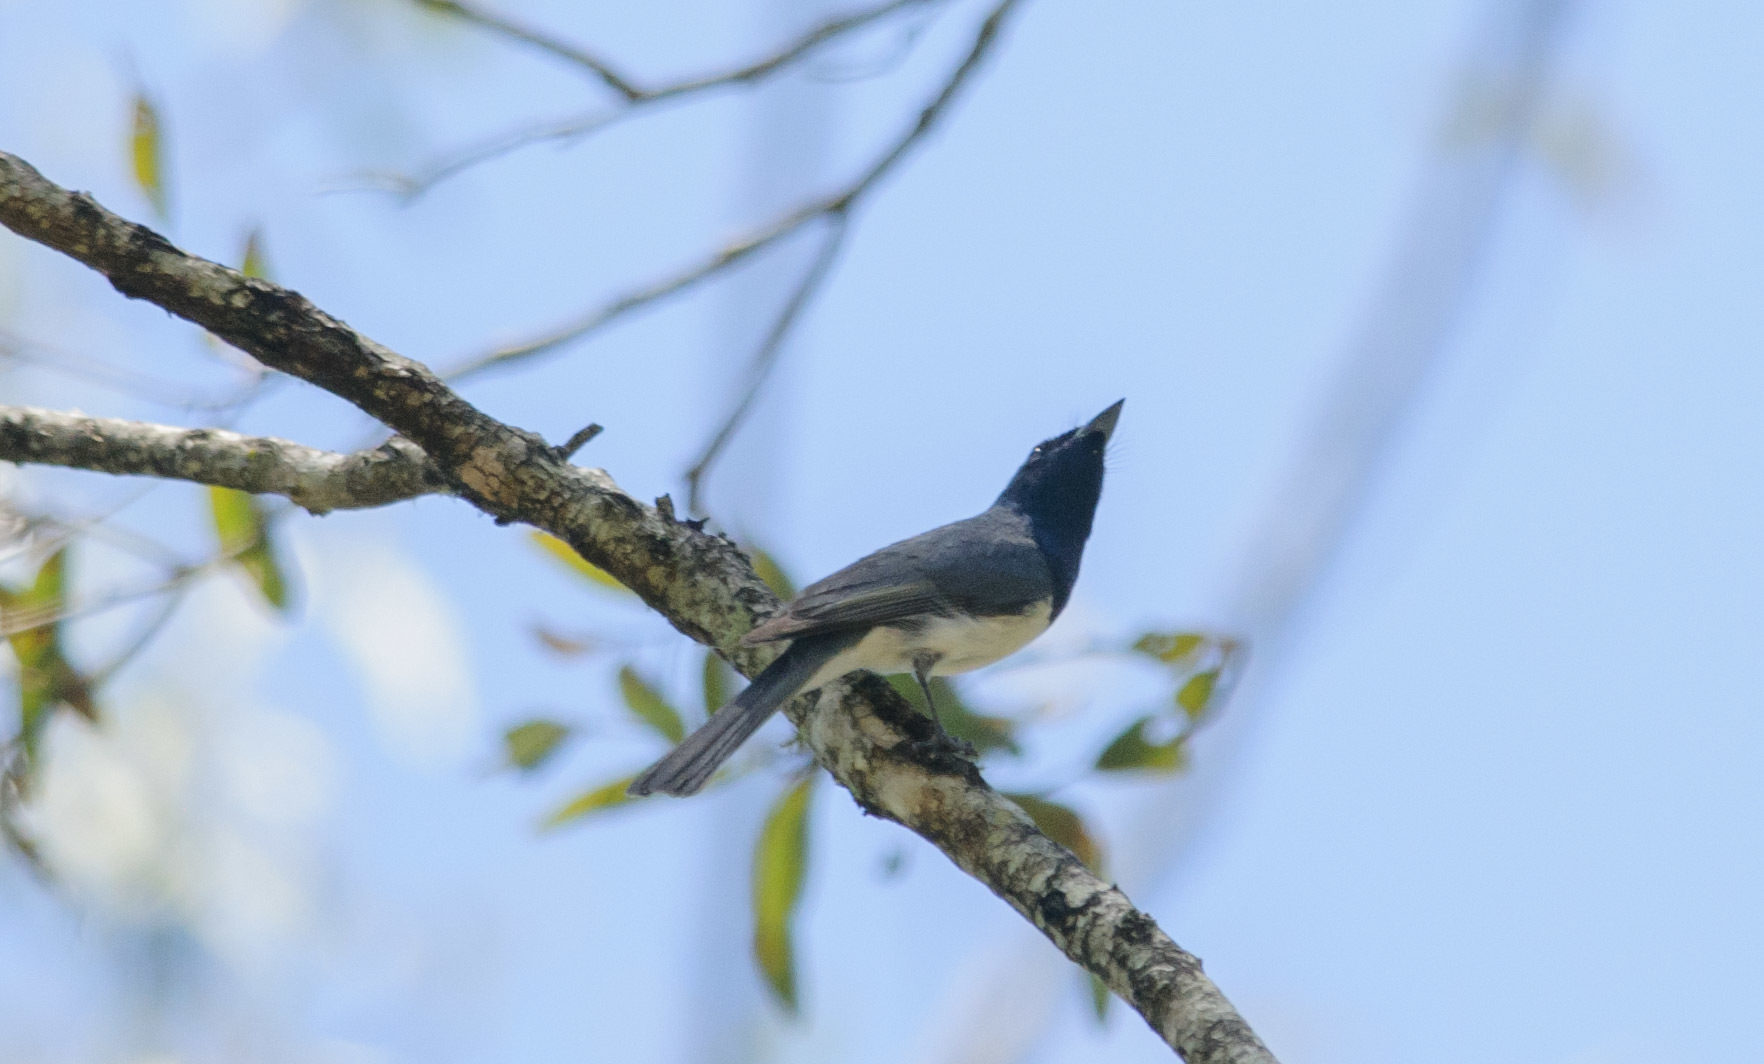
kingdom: Animalia
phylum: Chordata
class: Aves
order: Passeriformes
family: Monarchidae
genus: Myiagra
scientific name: Myiagra rubecula
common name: Leaden flycatcher
